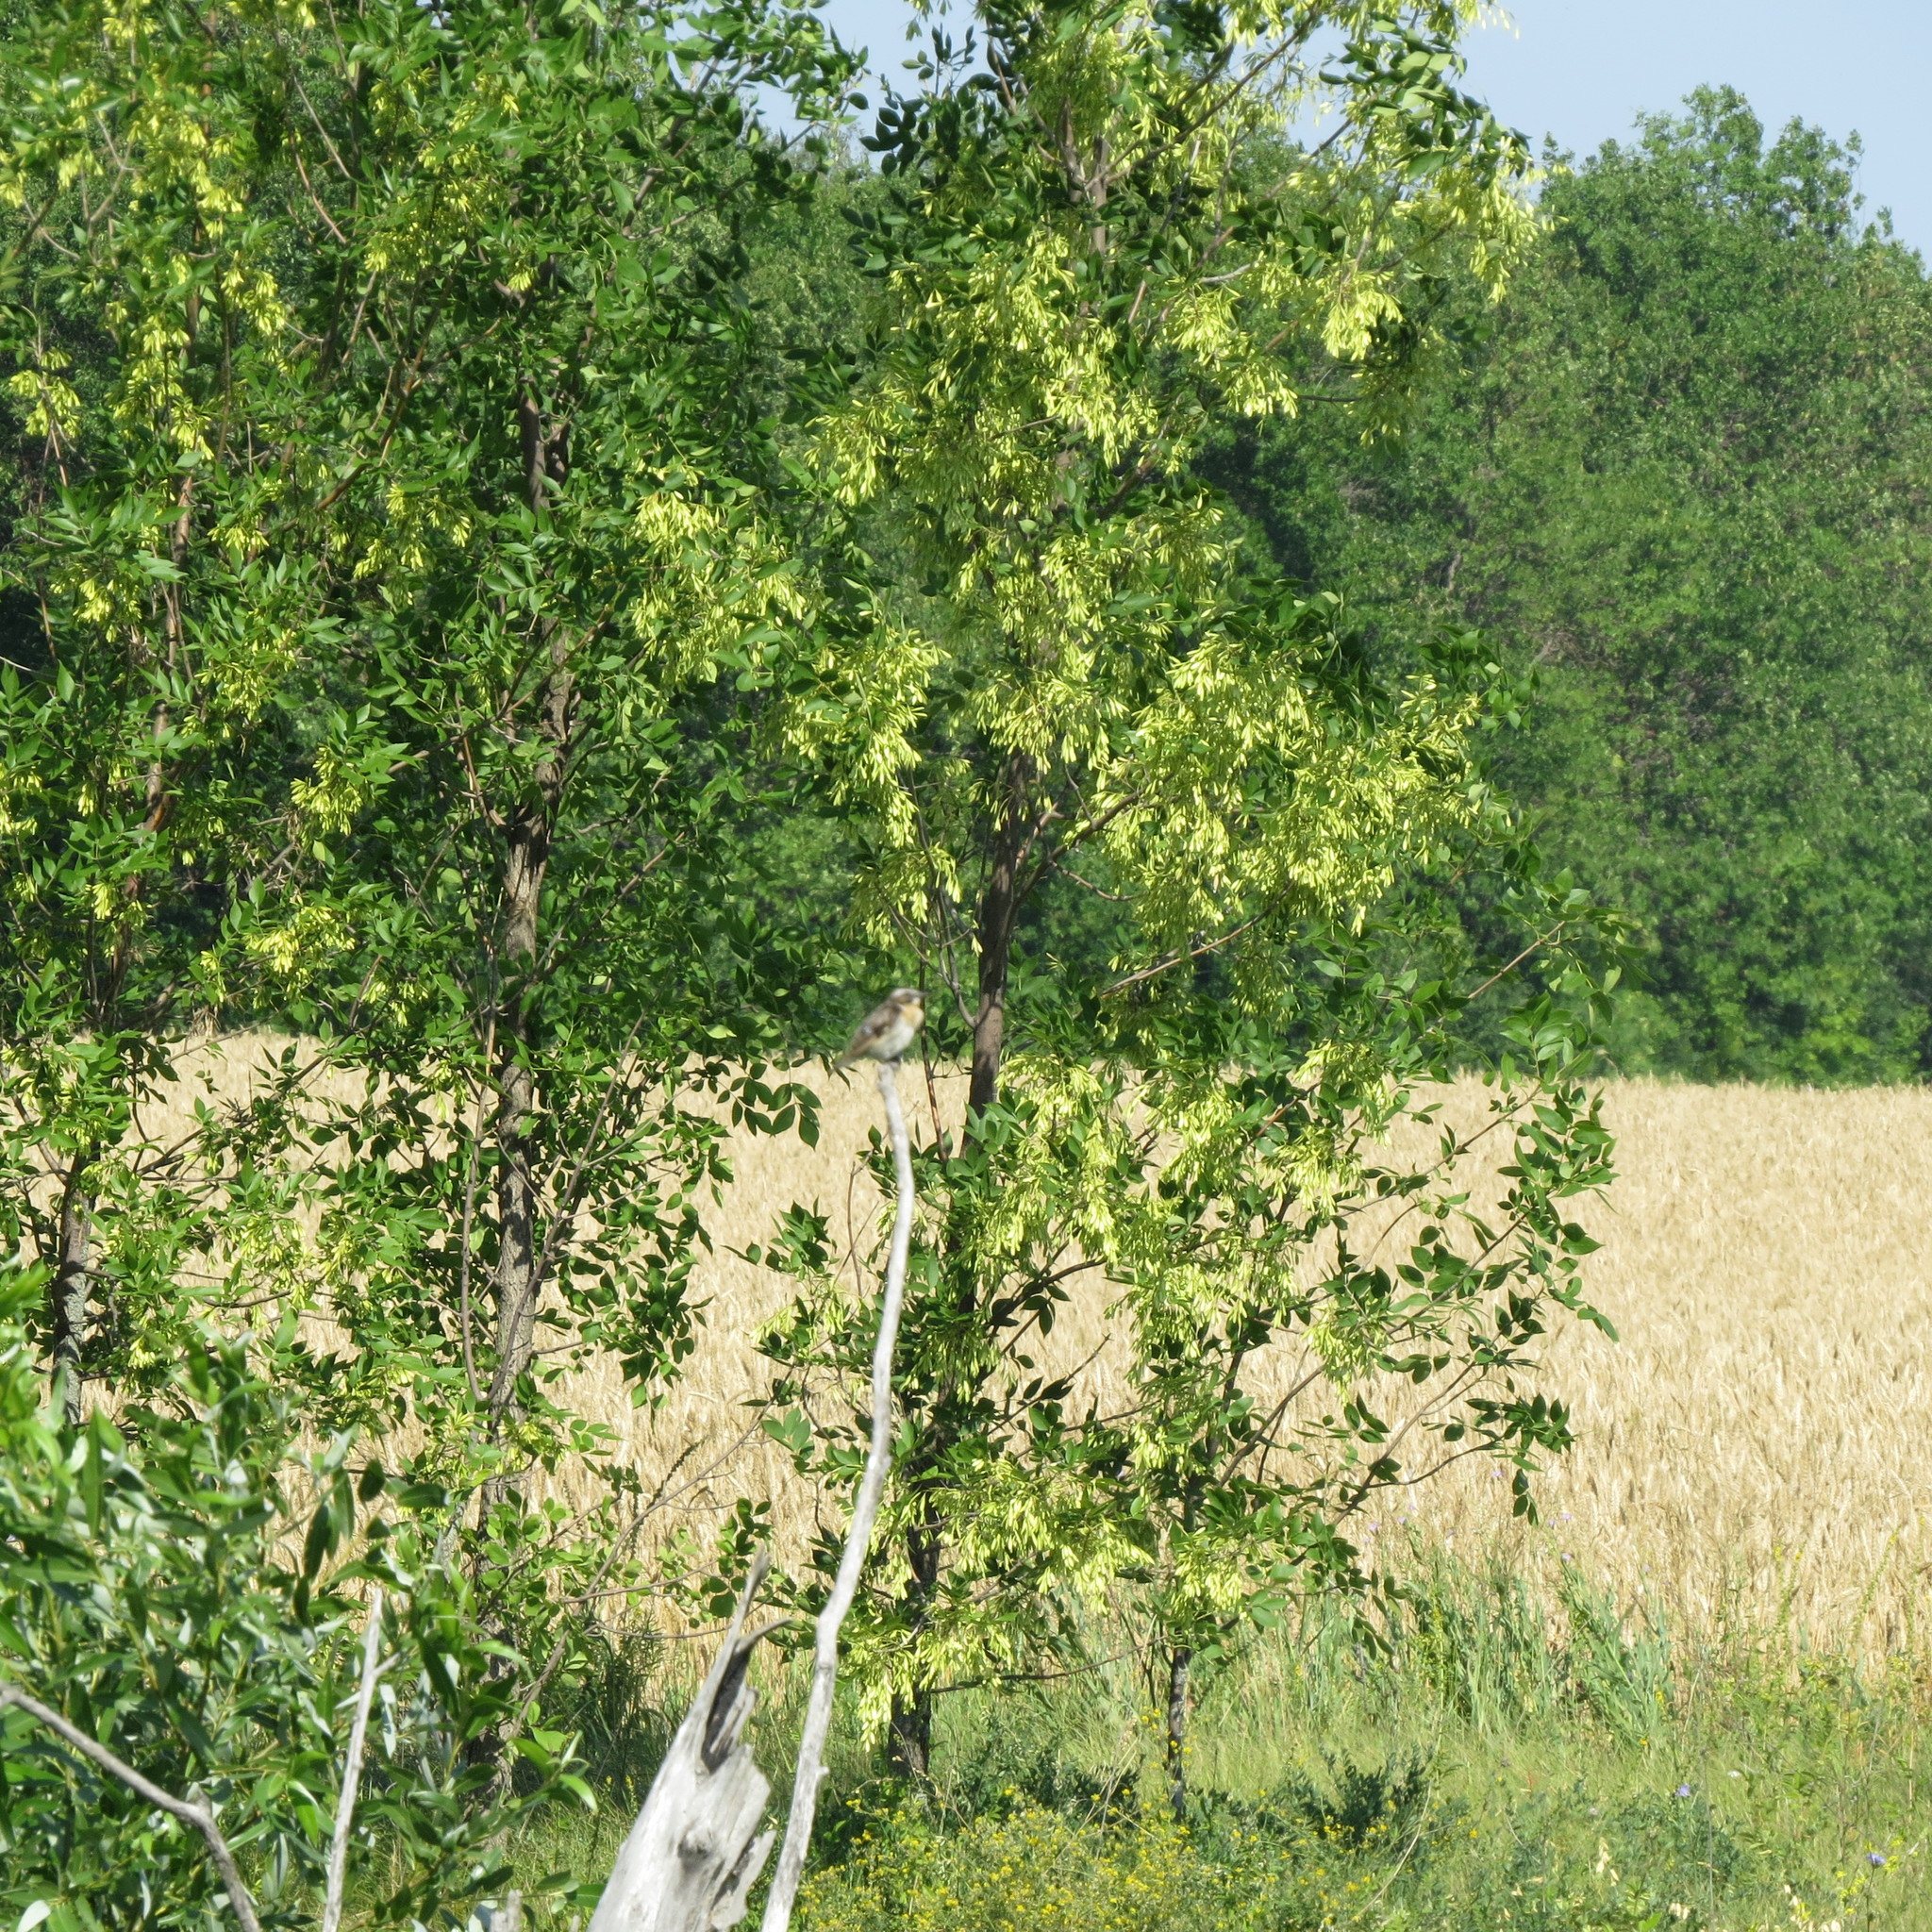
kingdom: Animalia
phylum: Chordata
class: Aves
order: Passeriformes
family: Muscicapidae
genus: Saxicola
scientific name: Saxicola rubetra
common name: Whinchat
